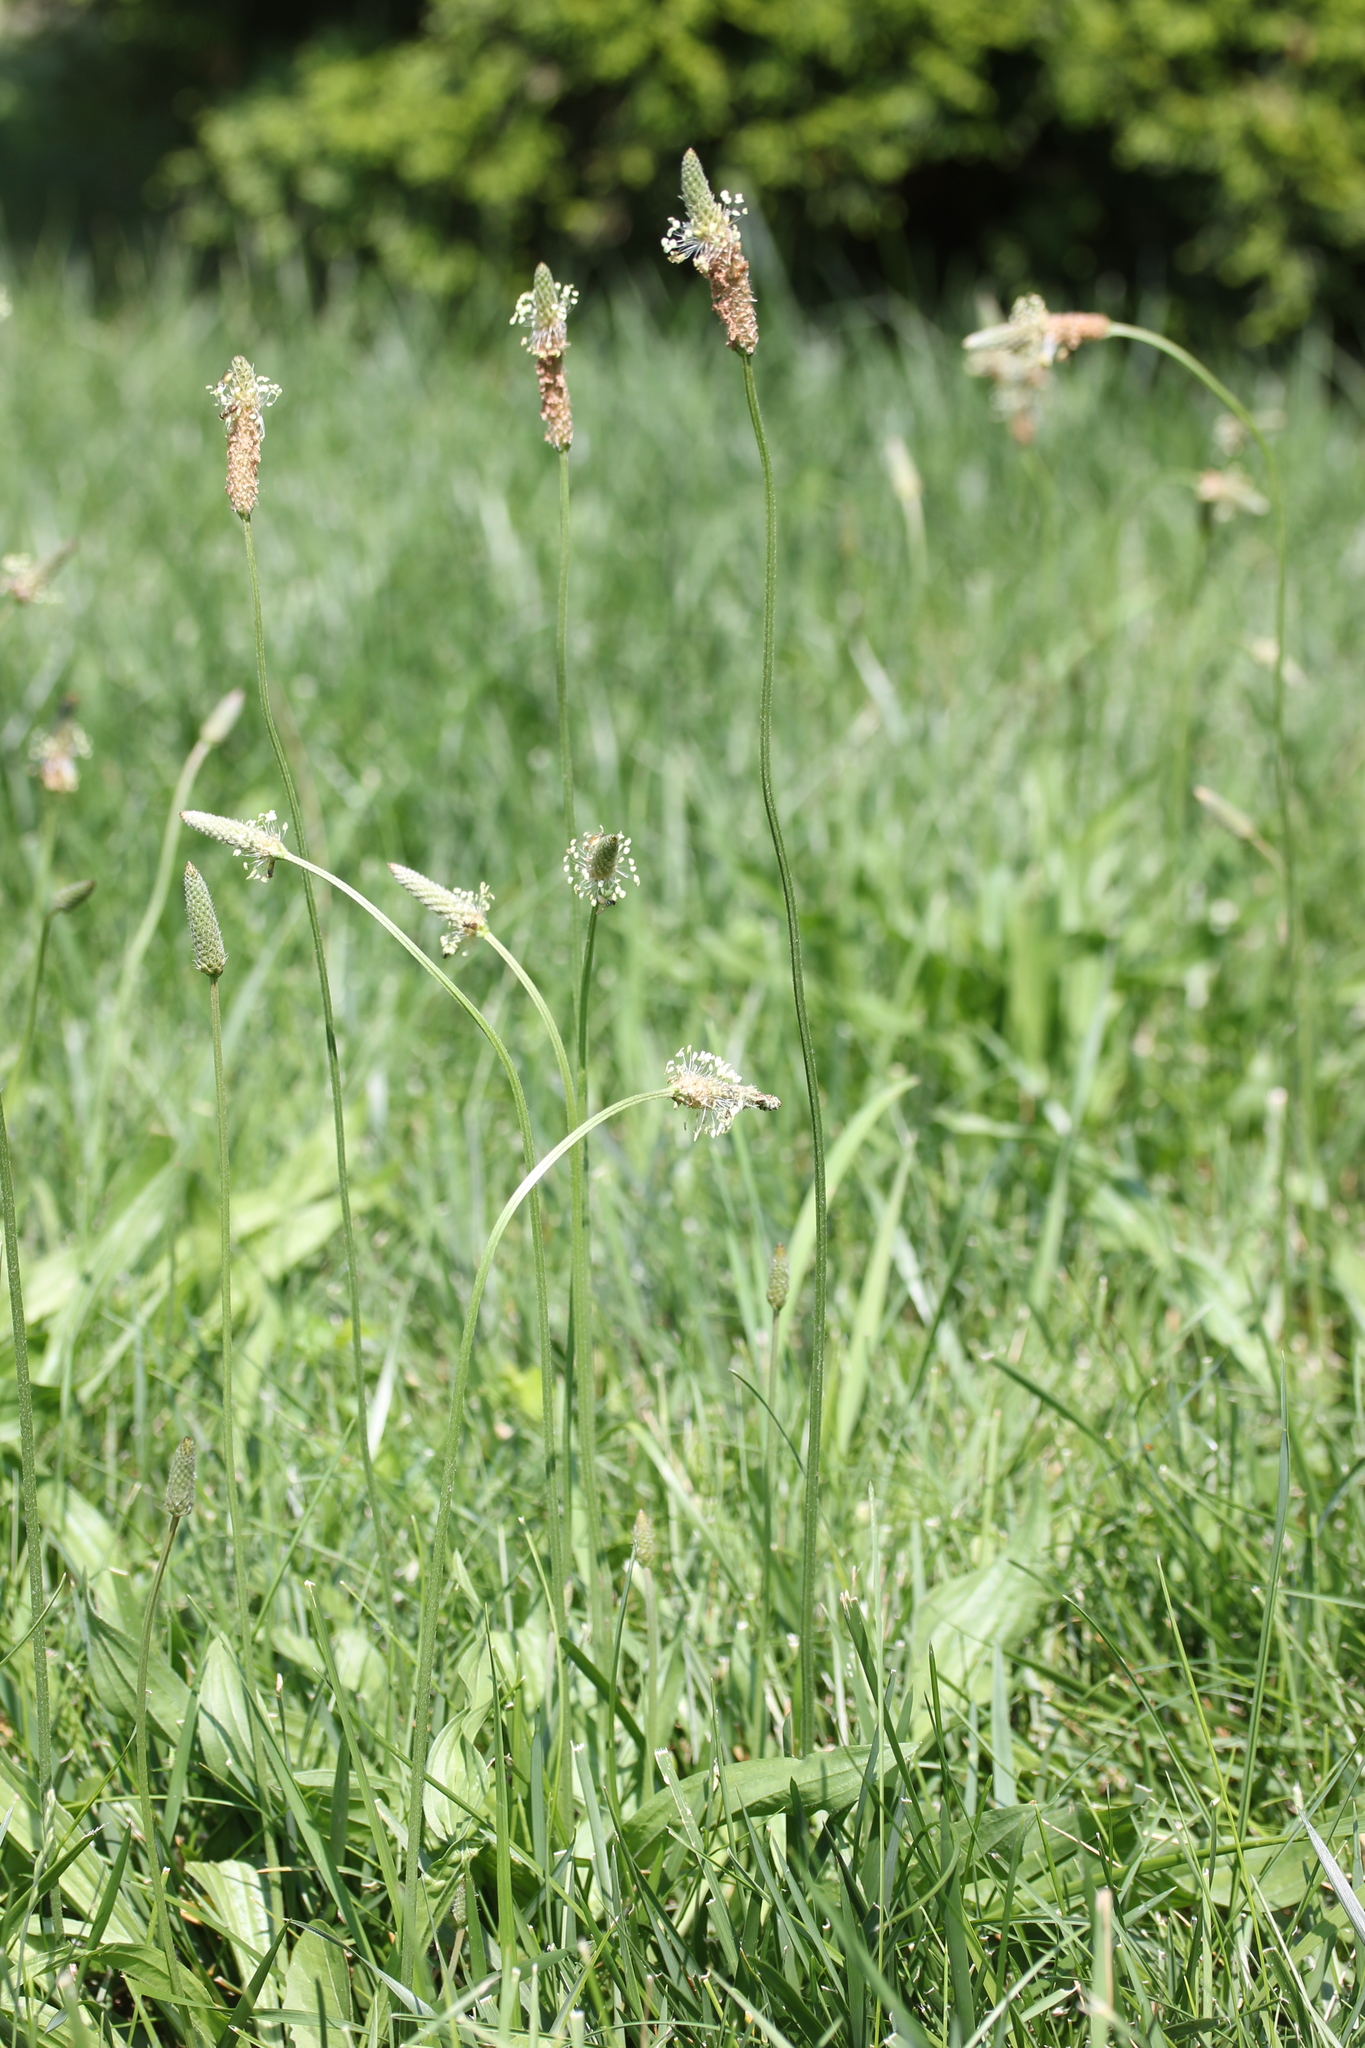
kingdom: Plantae
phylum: Tracheophyta
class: Magnoliopsida
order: Lamiales
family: Plantaginaceae
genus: Plantago
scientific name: Plantago lanceolata
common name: Ribwort plantain
